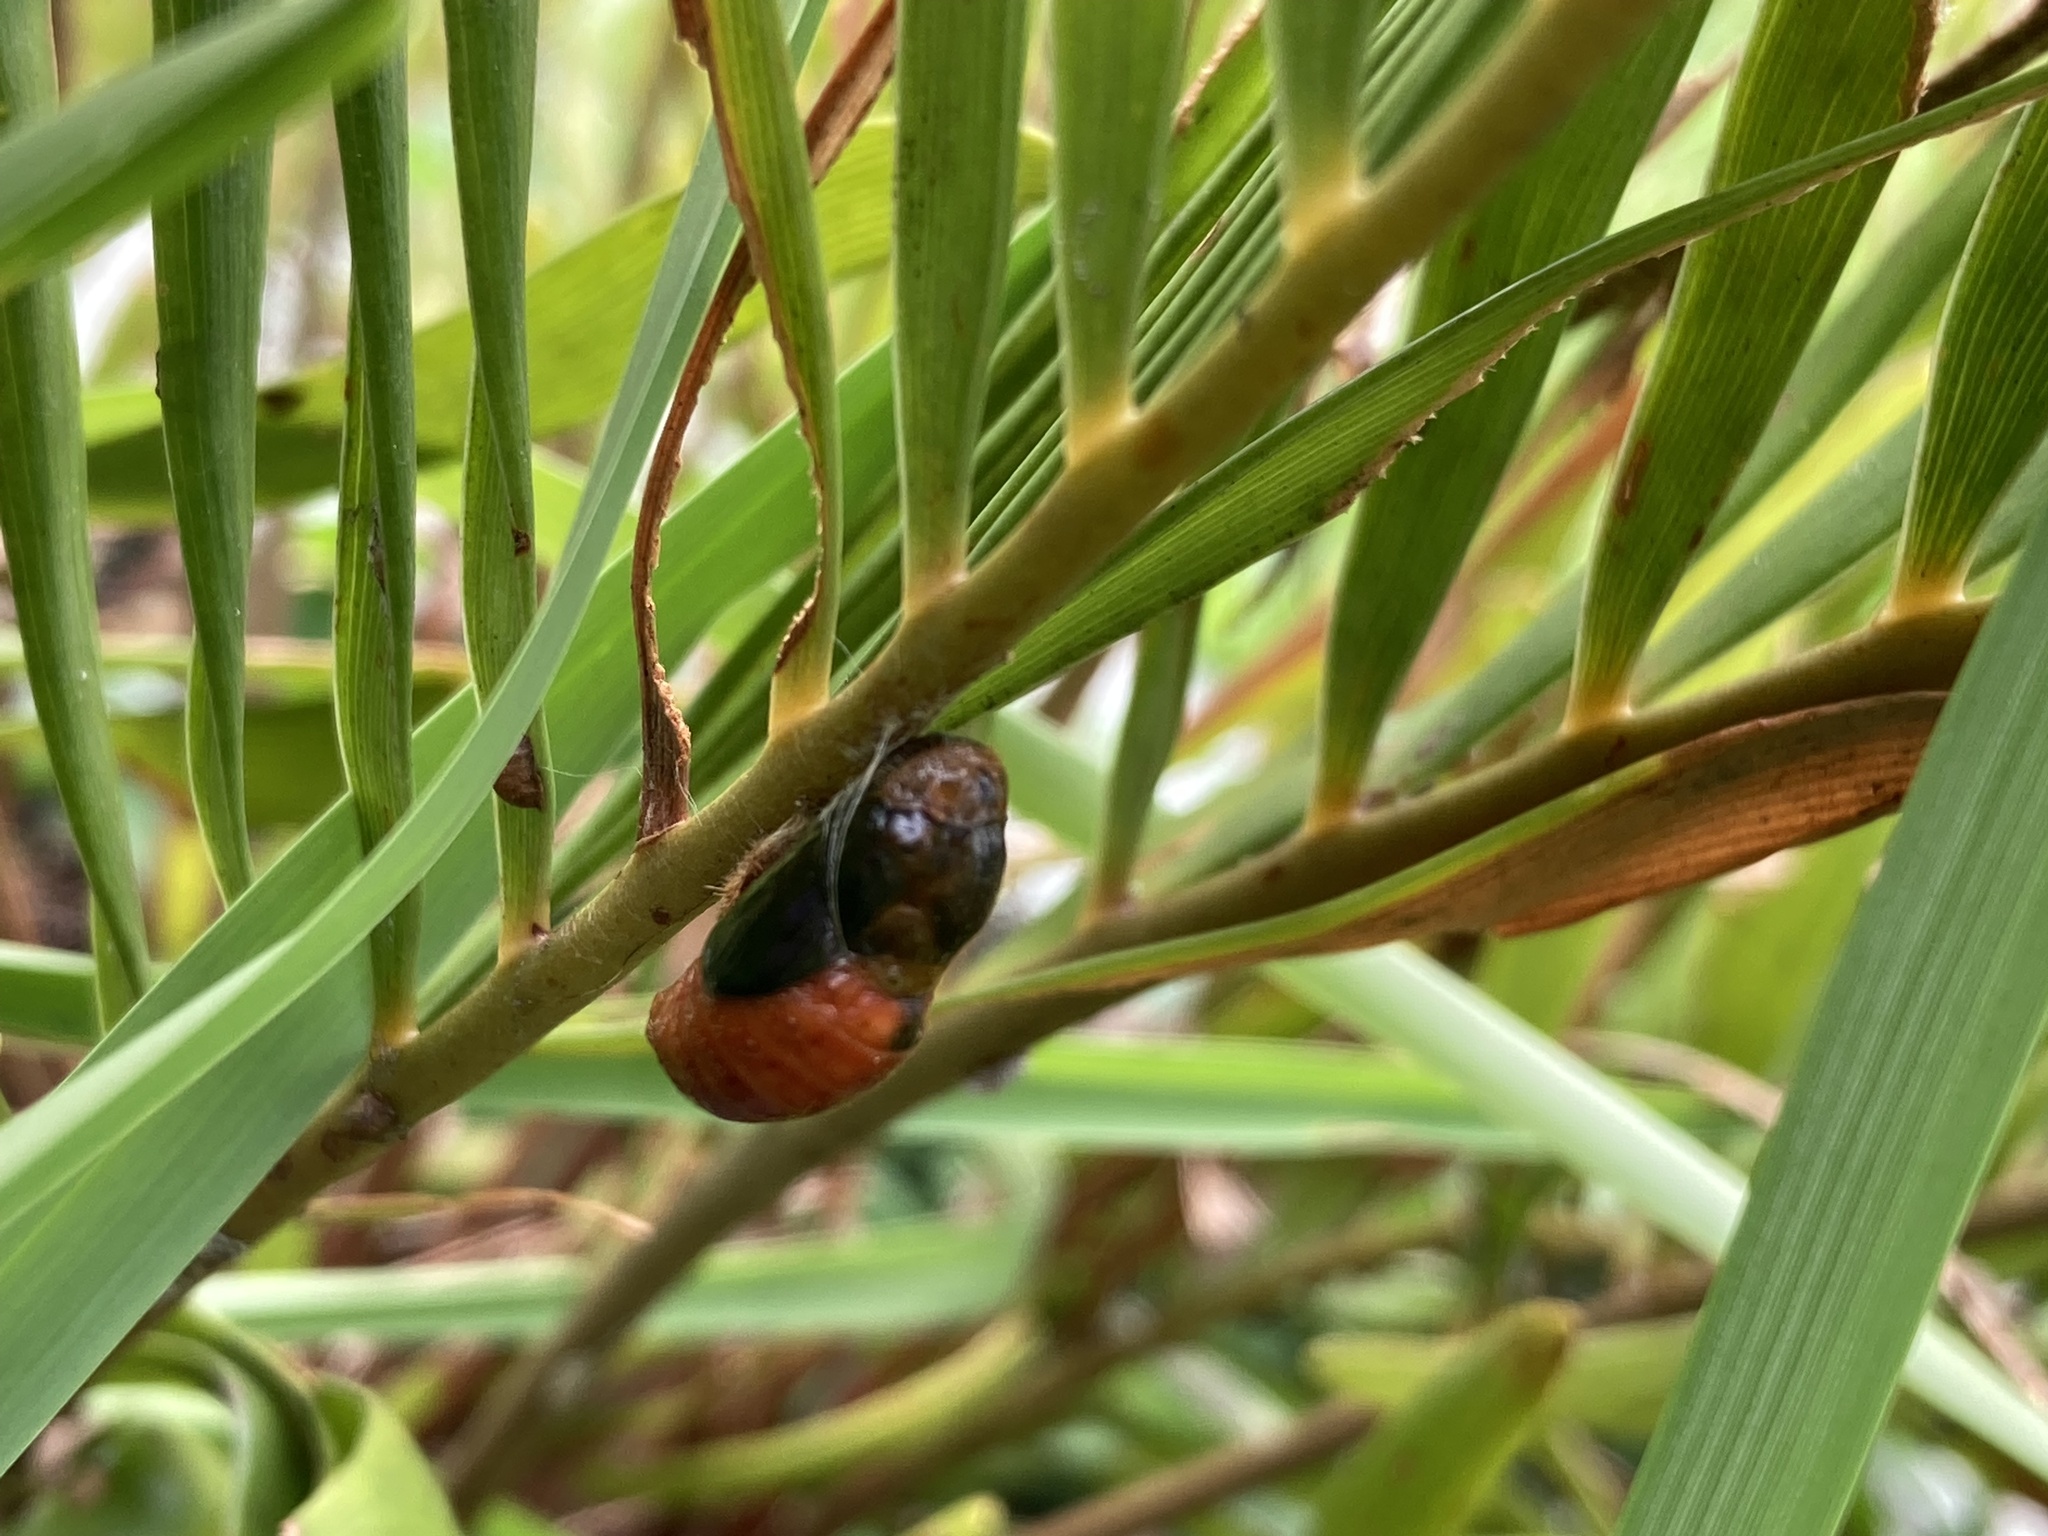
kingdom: Animalia
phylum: Arthropoda
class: Insecta
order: Lepidoptera
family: Lycaenidae
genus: Eumaeus
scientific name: Eumaeus atala
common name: Atala
